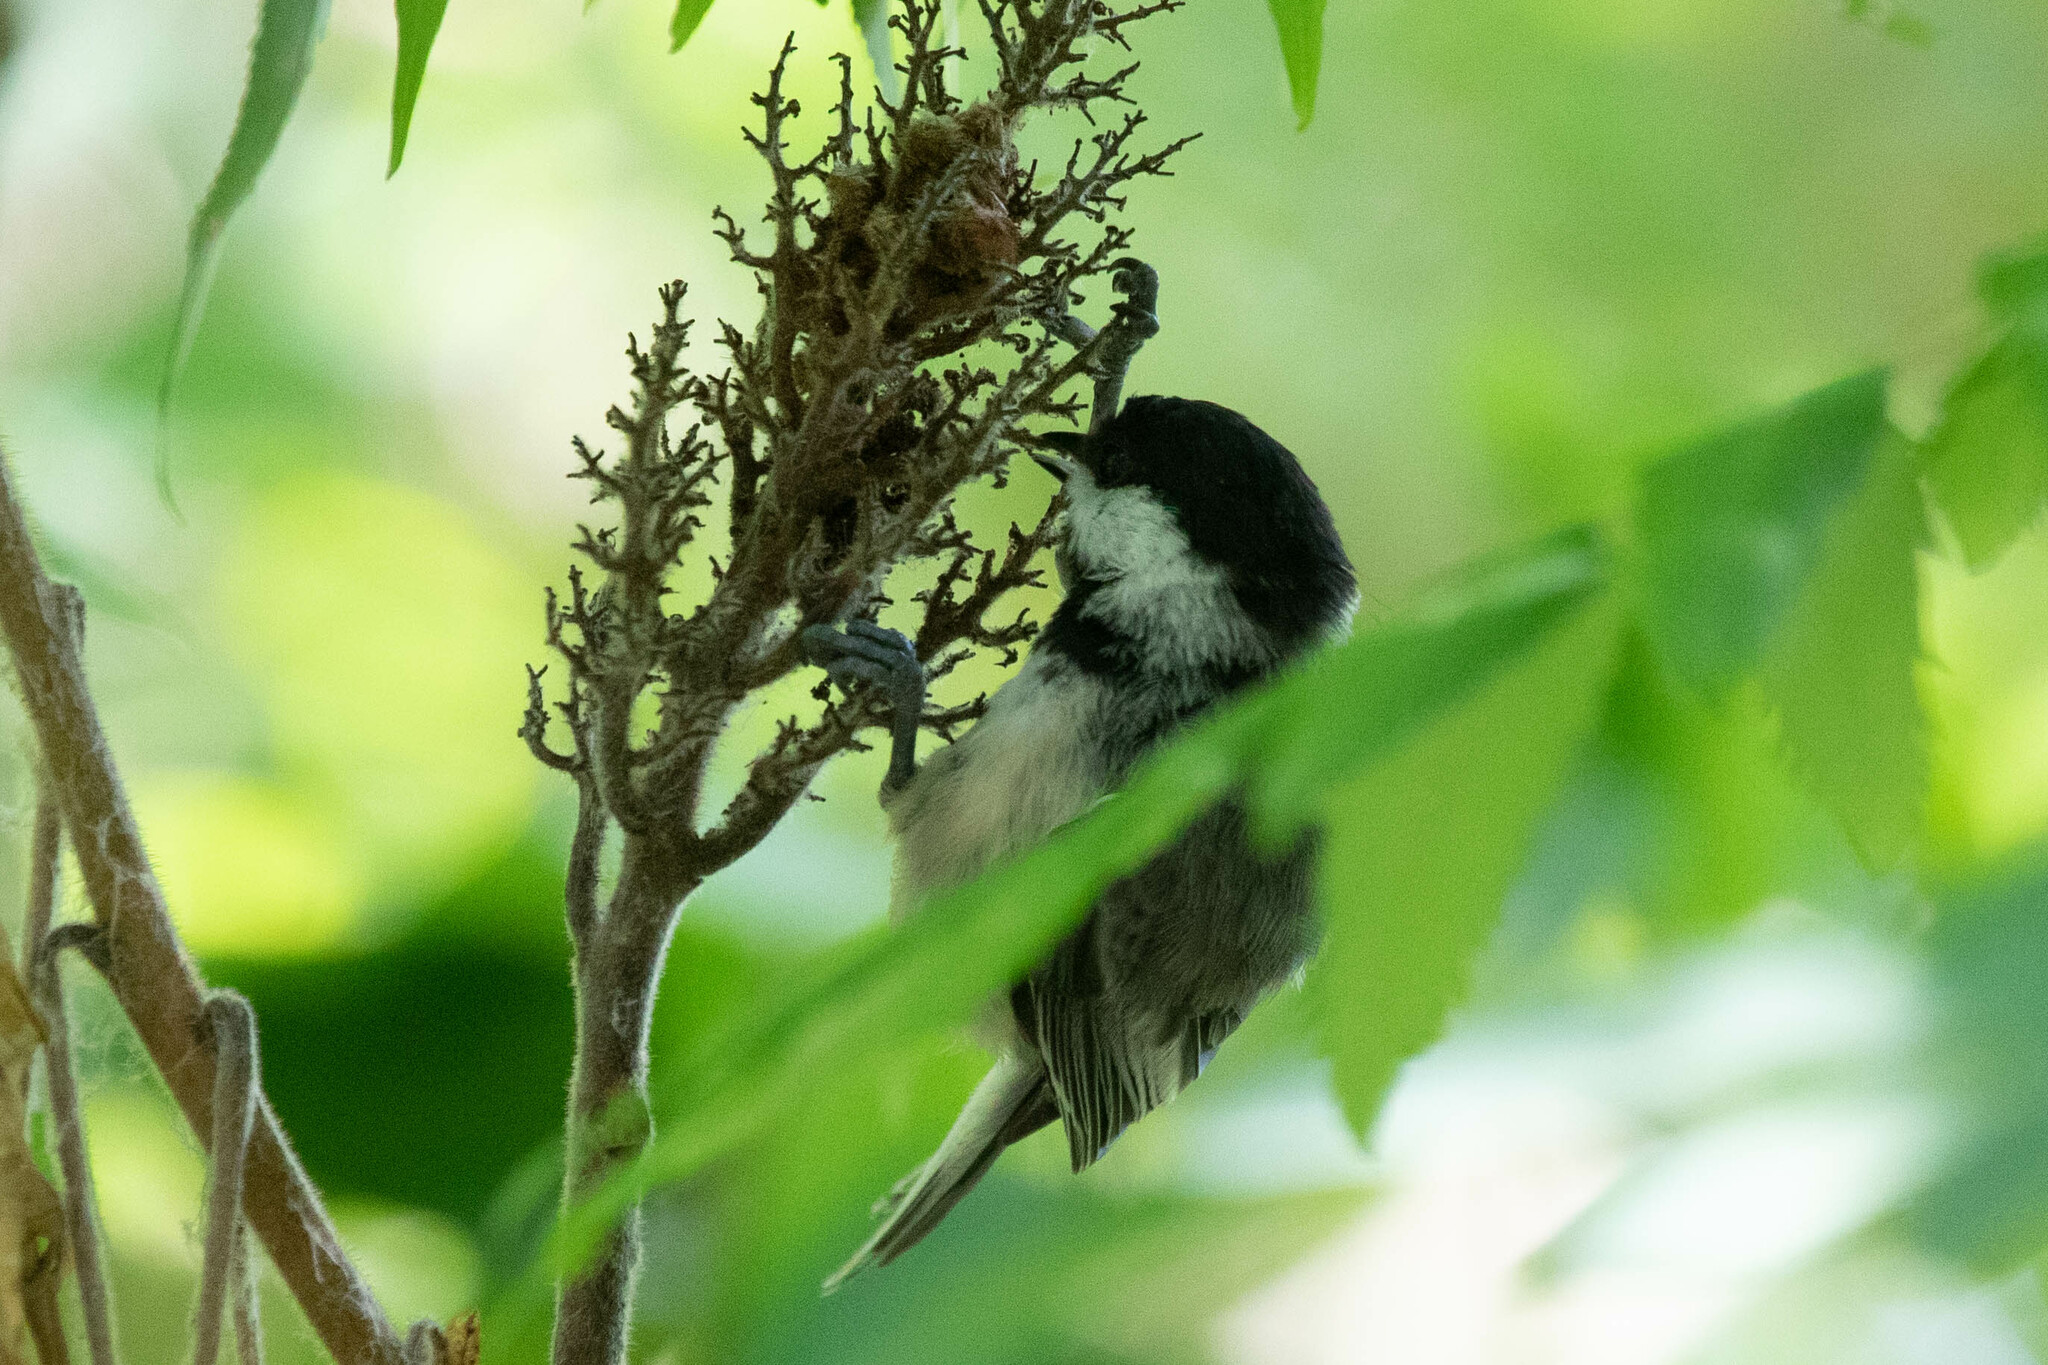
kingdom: Animalia
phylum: Chordata
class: Aves
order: Passeriformes
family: Paridae
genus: Poecile
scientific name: Poecile atricapillus
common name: Black-capped chickadee
